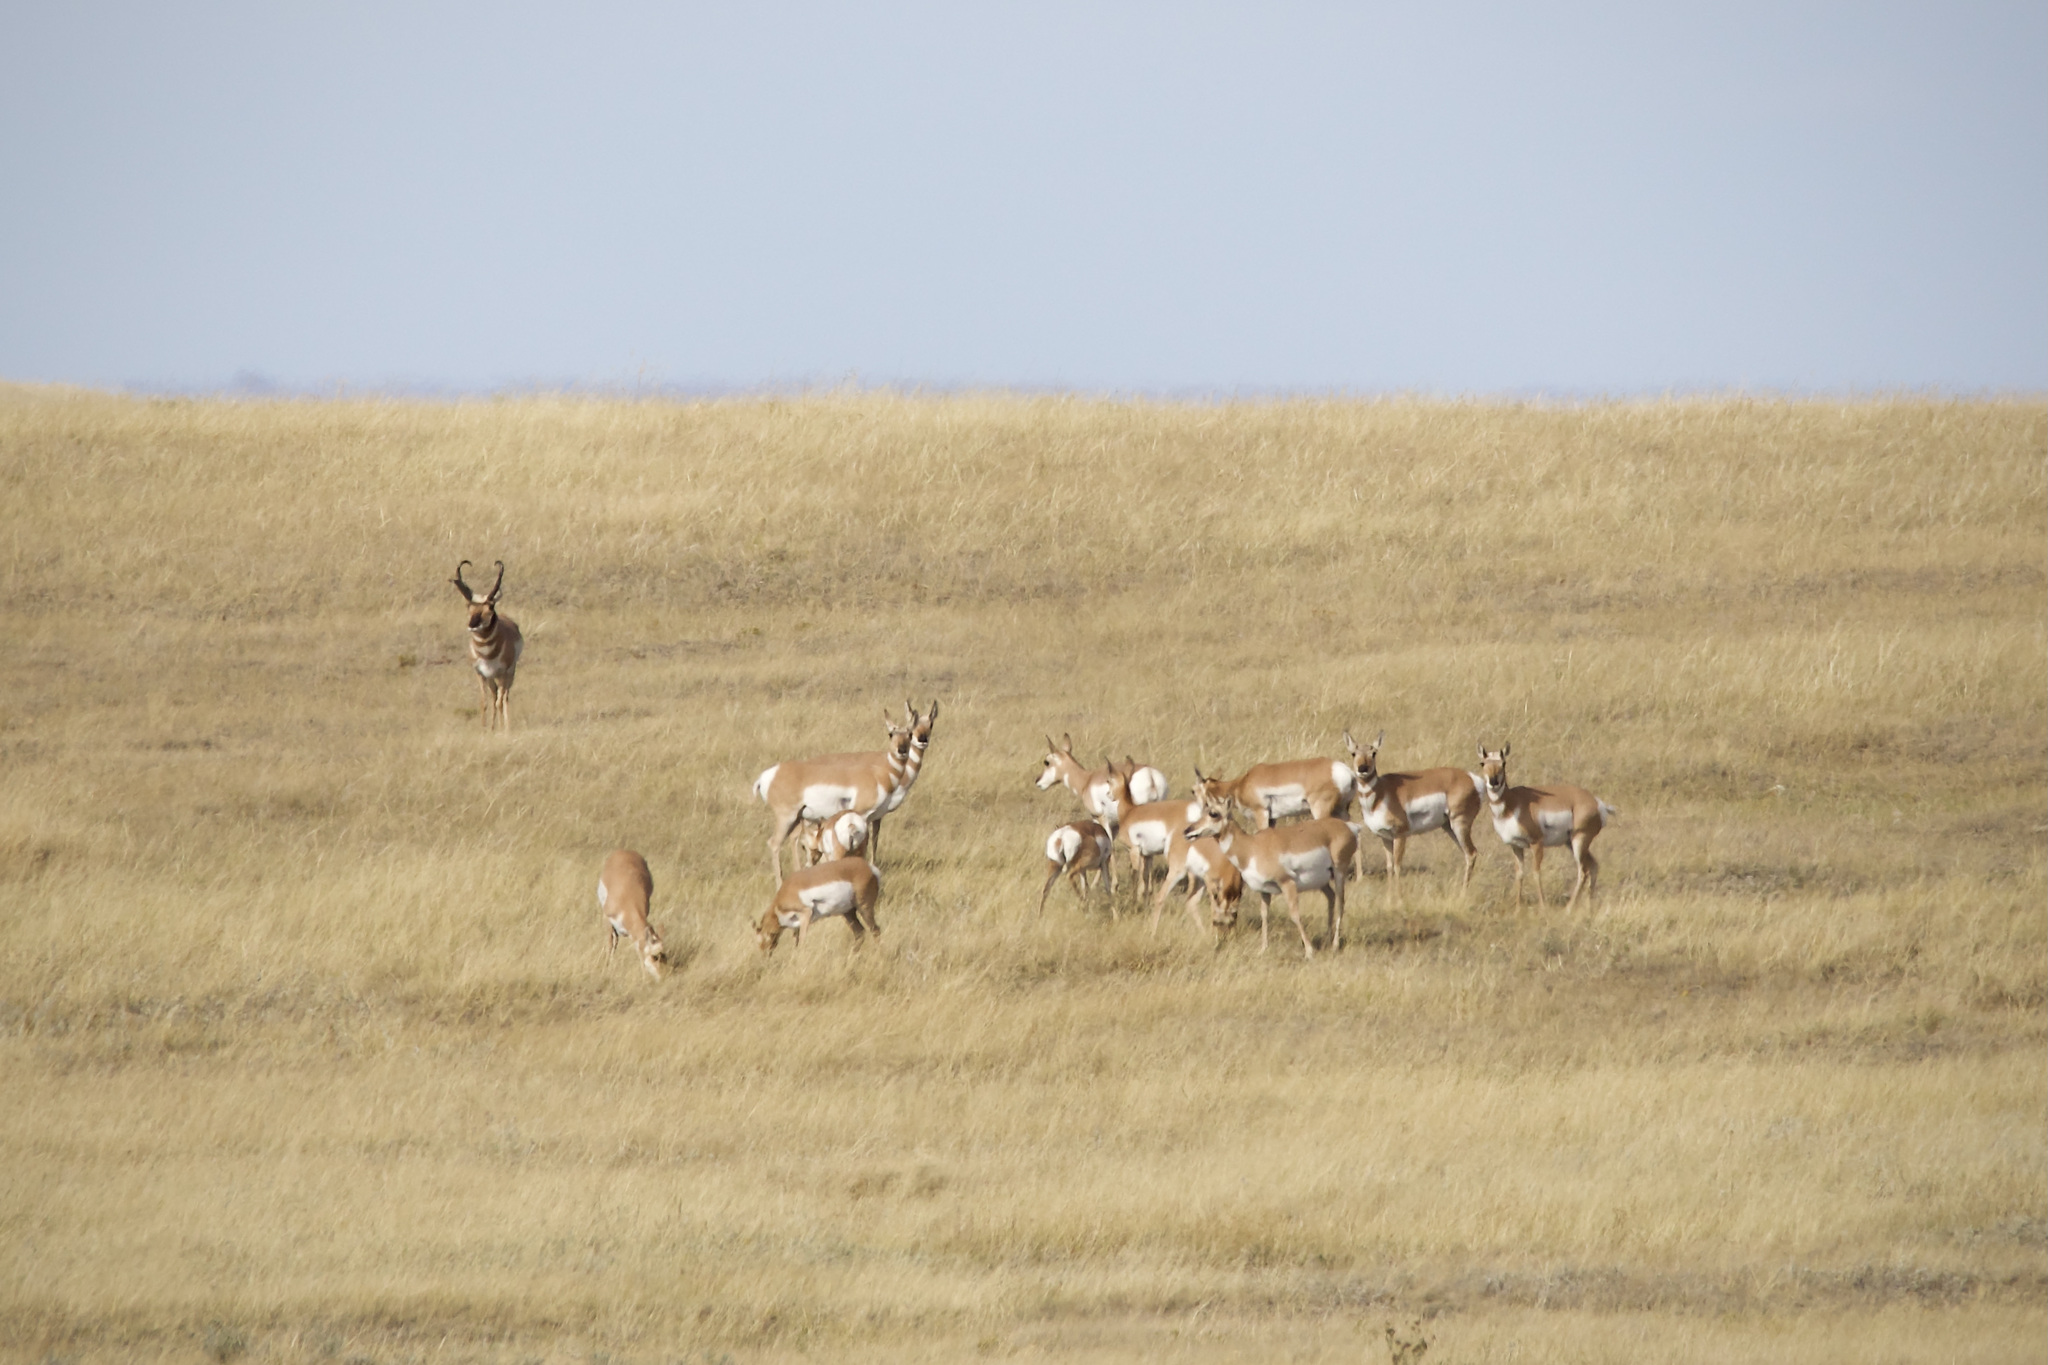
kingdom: Animalia
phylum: Chordata
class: Mammalia
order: Artiodactyla
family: Antilocapridae
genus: Antilocapra
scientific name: Antilocapra americana
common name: Pronghorn
